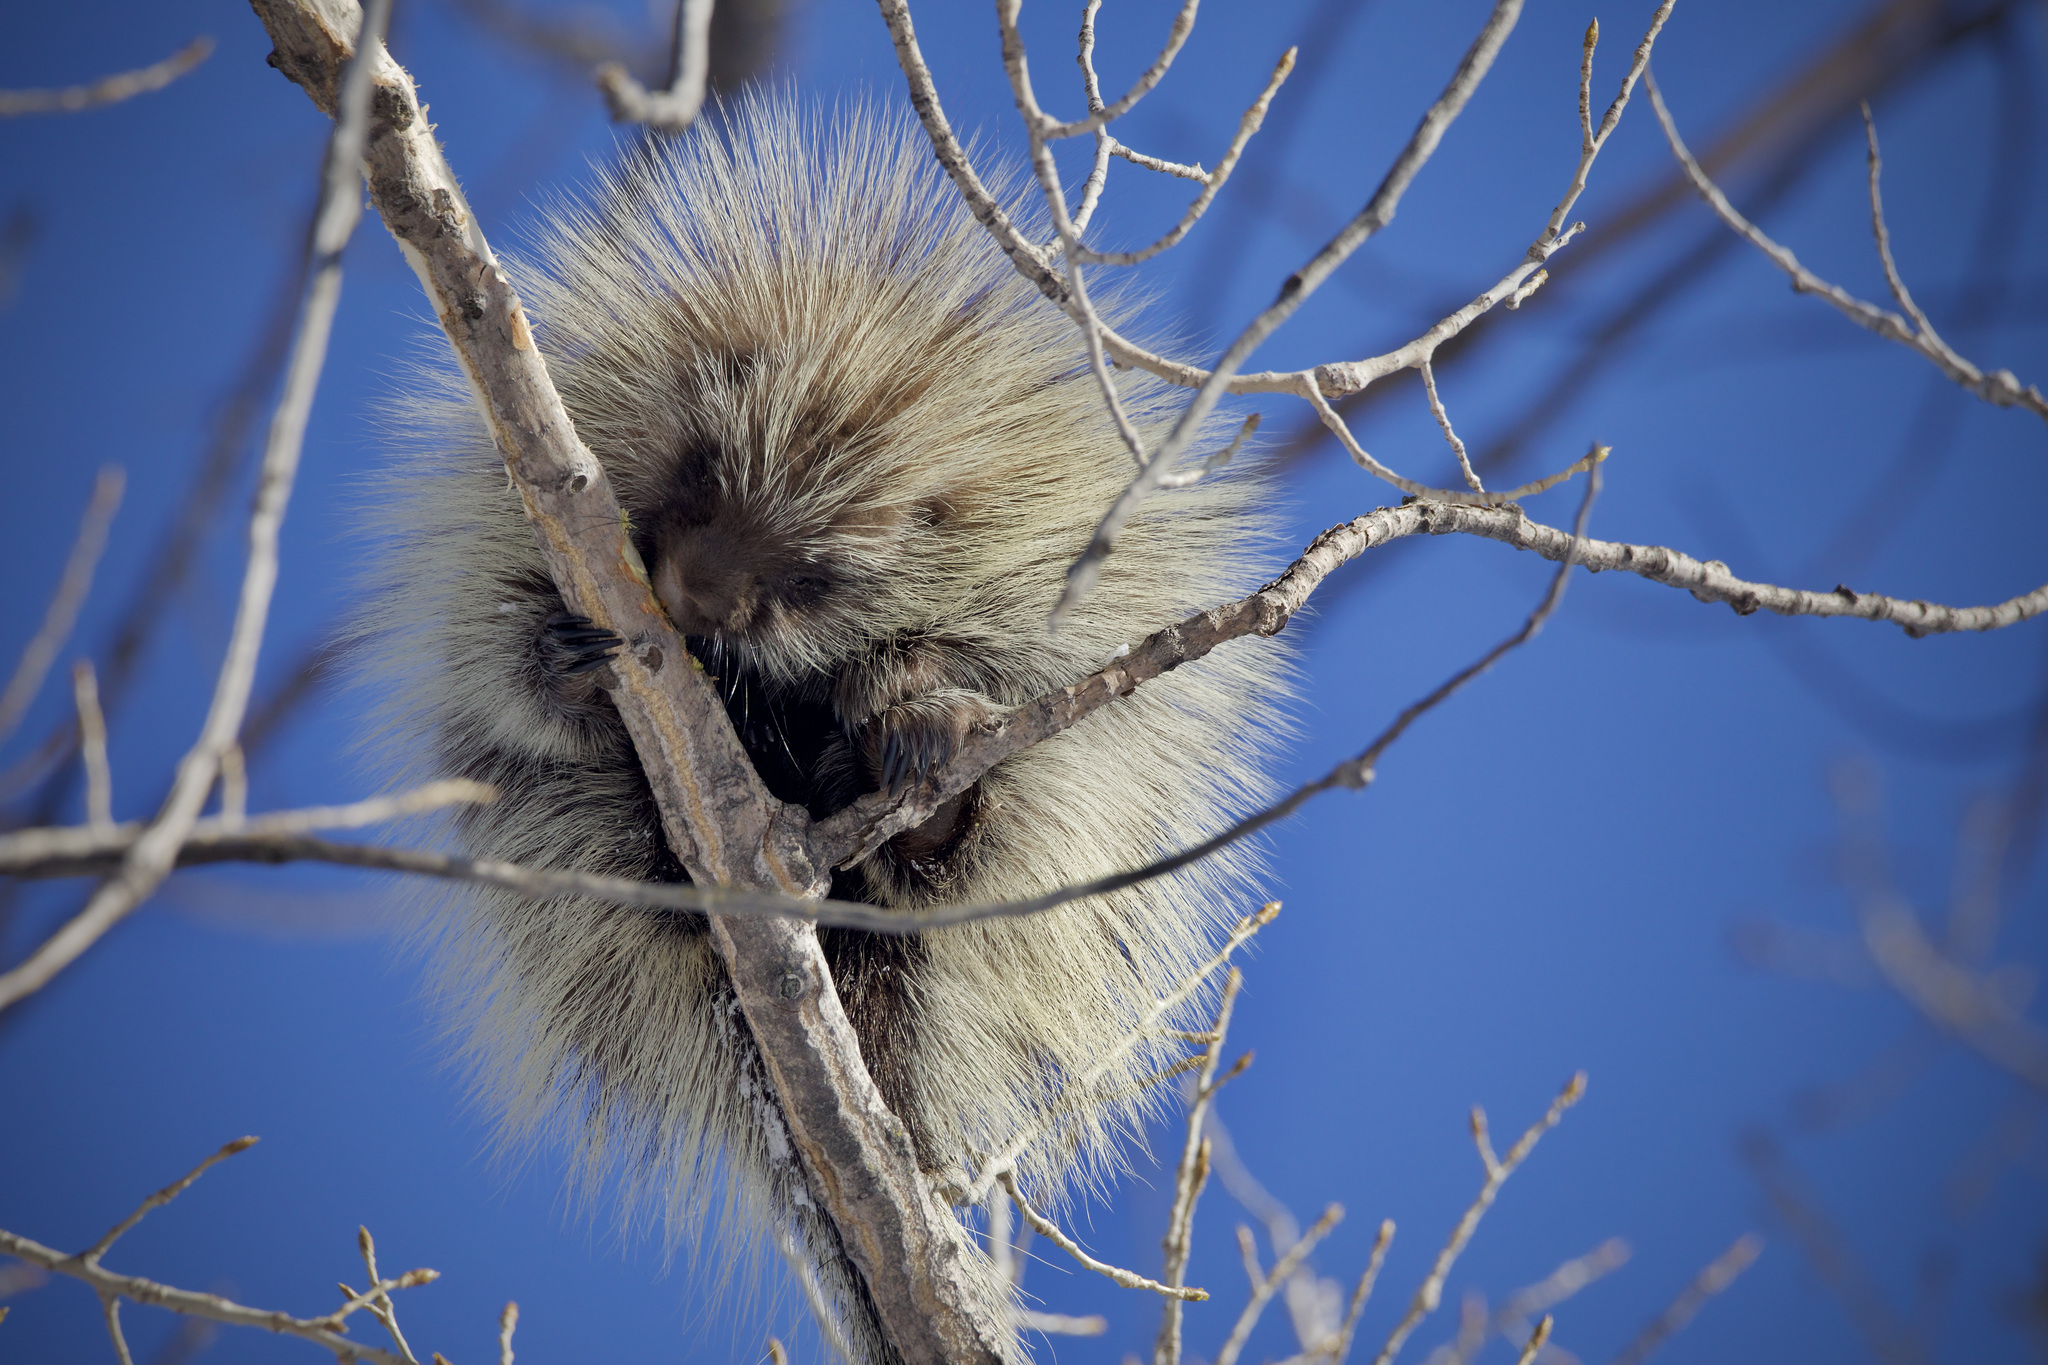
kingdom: Animalia
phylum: Chordata
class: Mammalia
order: Rodentia
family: Erethizontidae
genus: Erethizon
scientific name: Erethizon dorsatus
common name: North american porcupine
